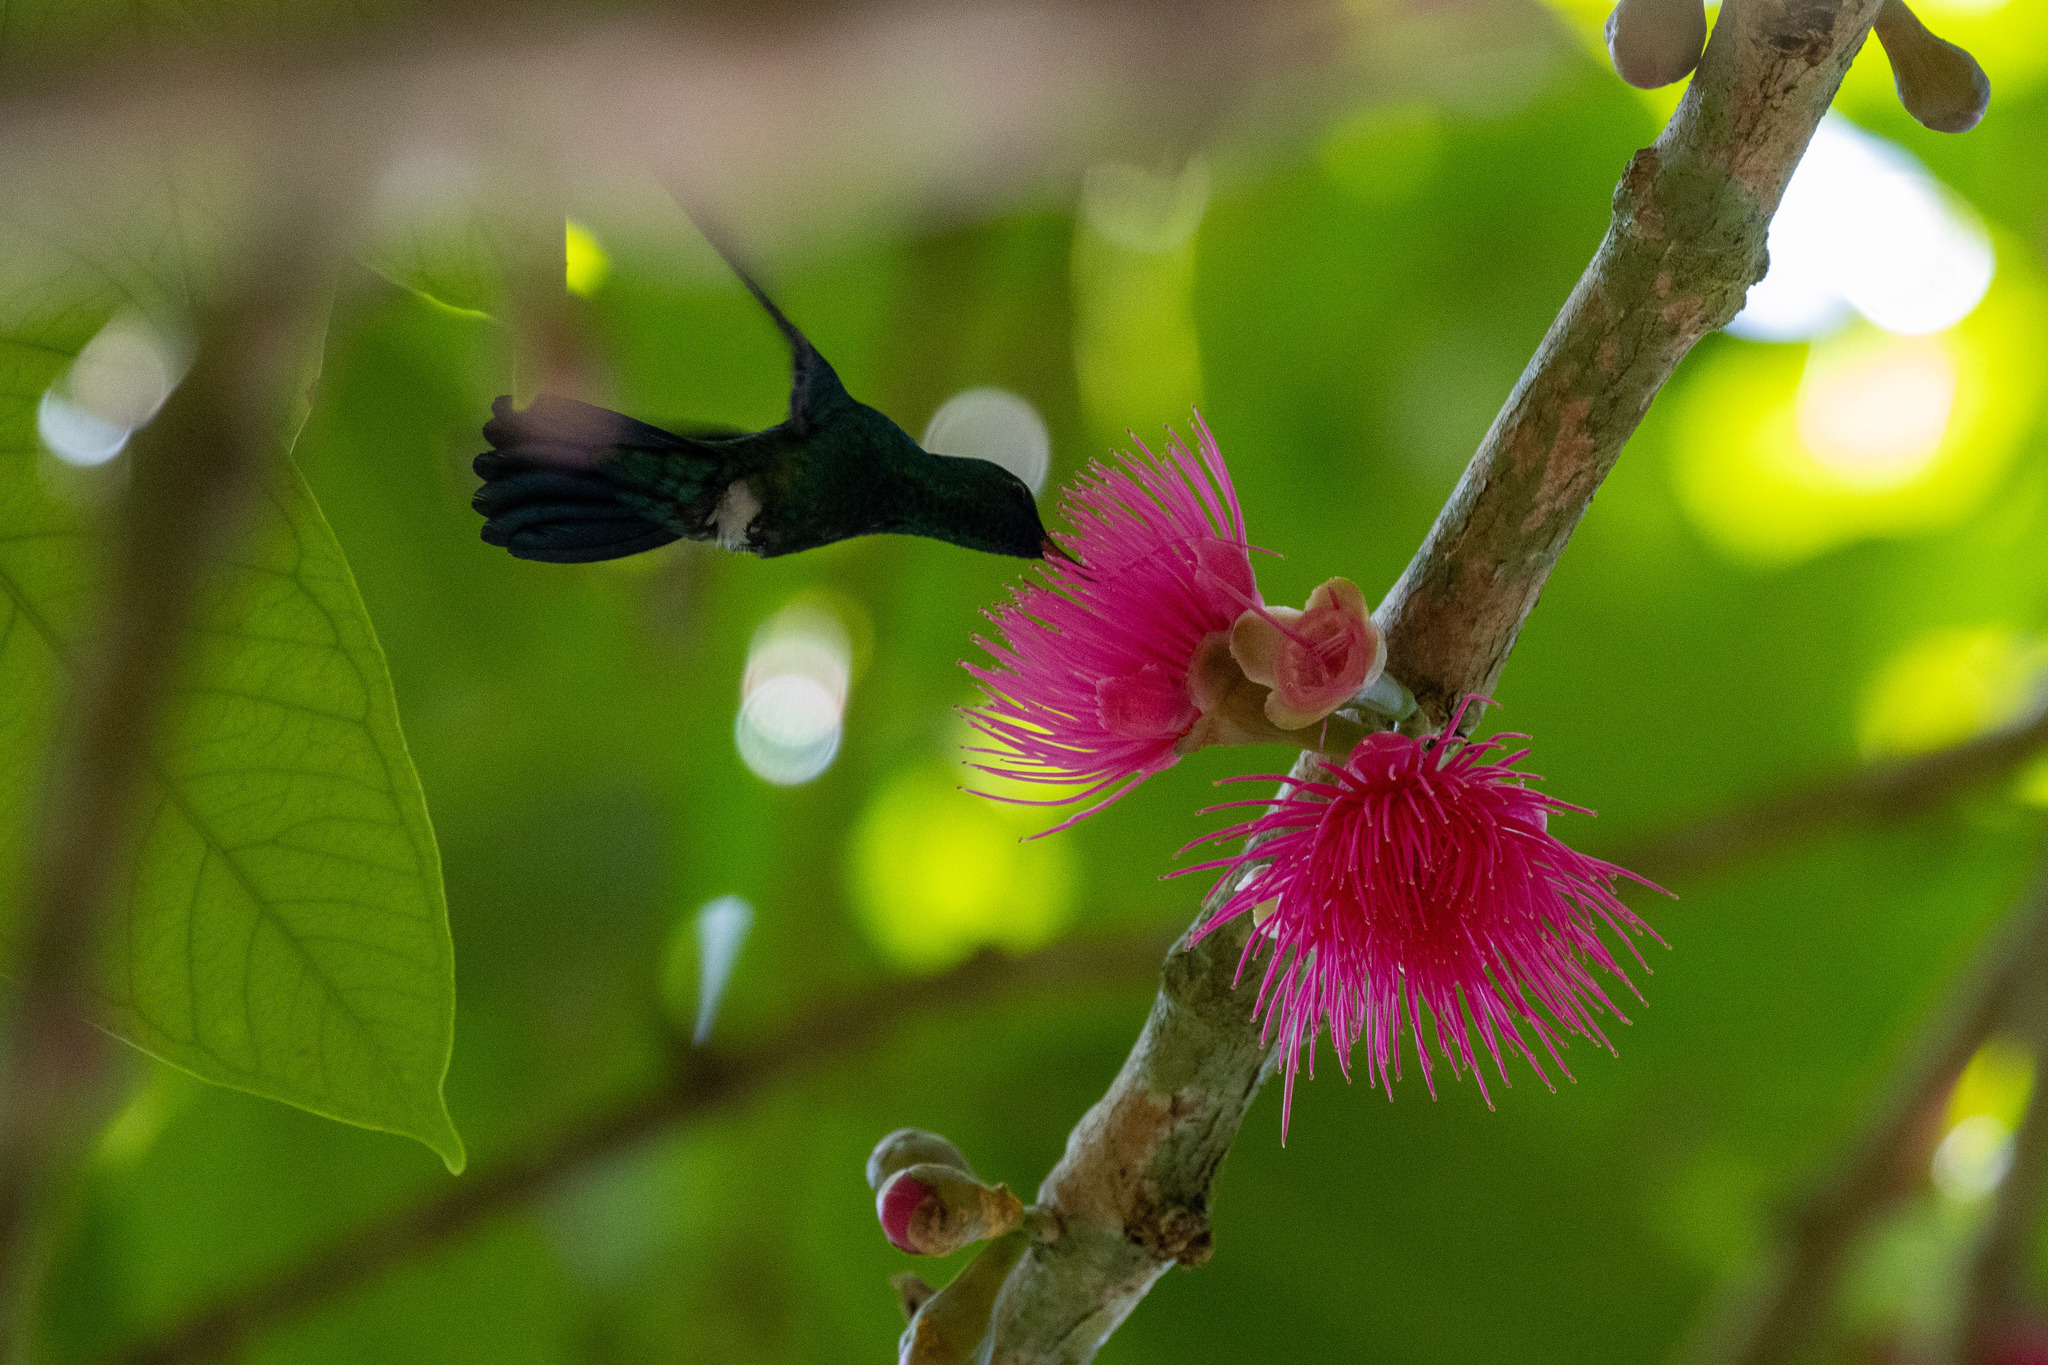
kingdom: Animalia
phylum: Chordata
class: Aves
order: Apodiformes
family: Trochilidae
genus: Chlorestes
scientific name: Chlorestes notata
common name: Blue-chinned sapphire
